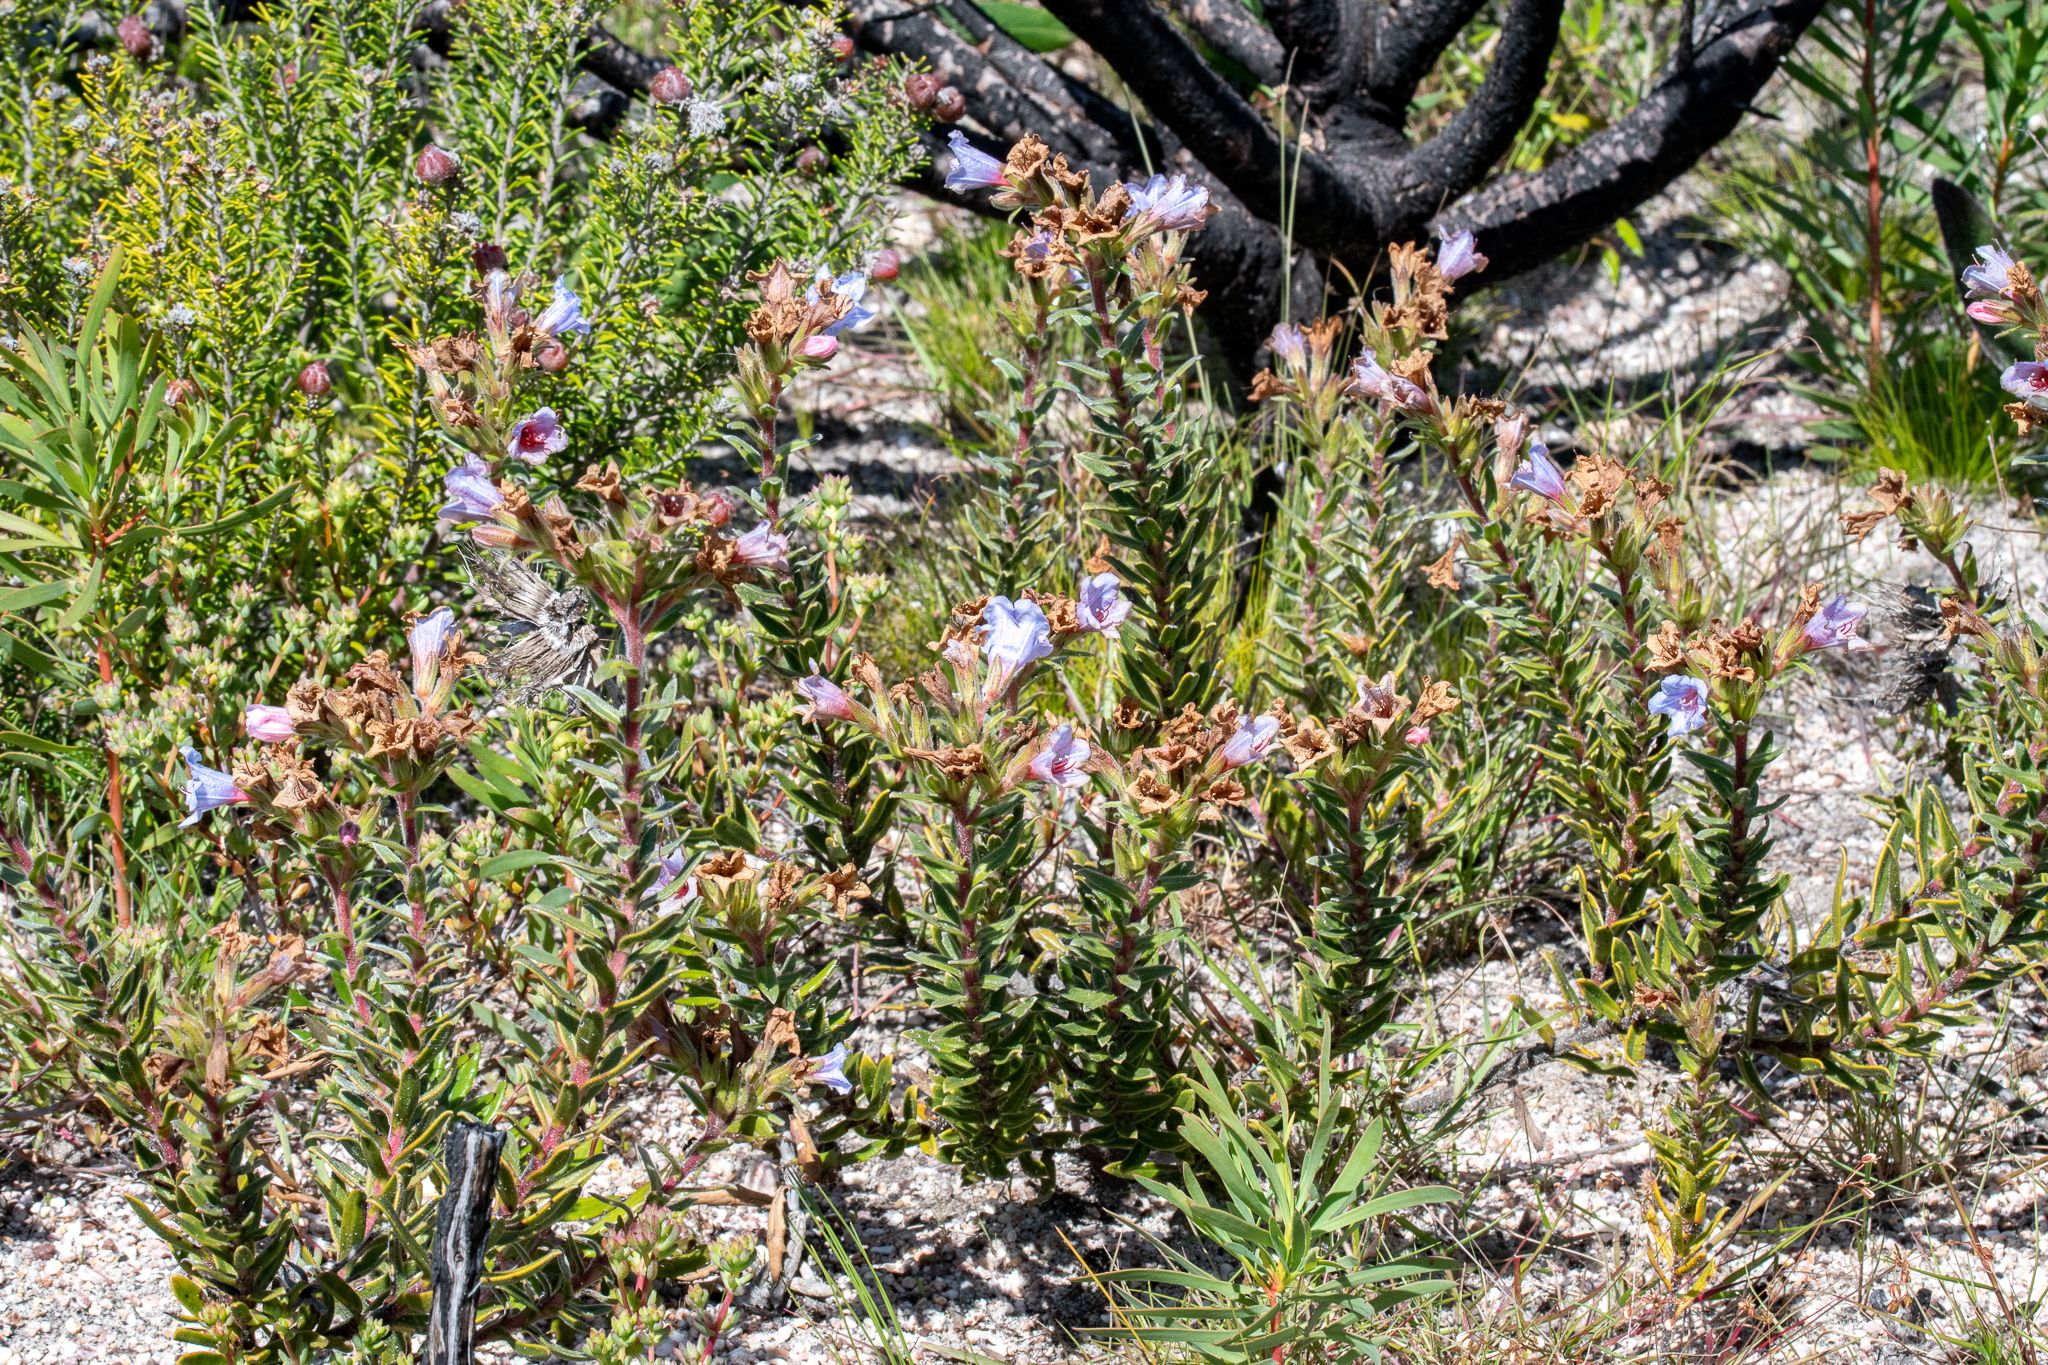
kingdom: Plantae
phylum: Tracheophyta
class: Magnoliopsida
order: Boraginales
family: Boraginaceae
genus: Lobostemon
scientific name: Lobostemon fruticosus
